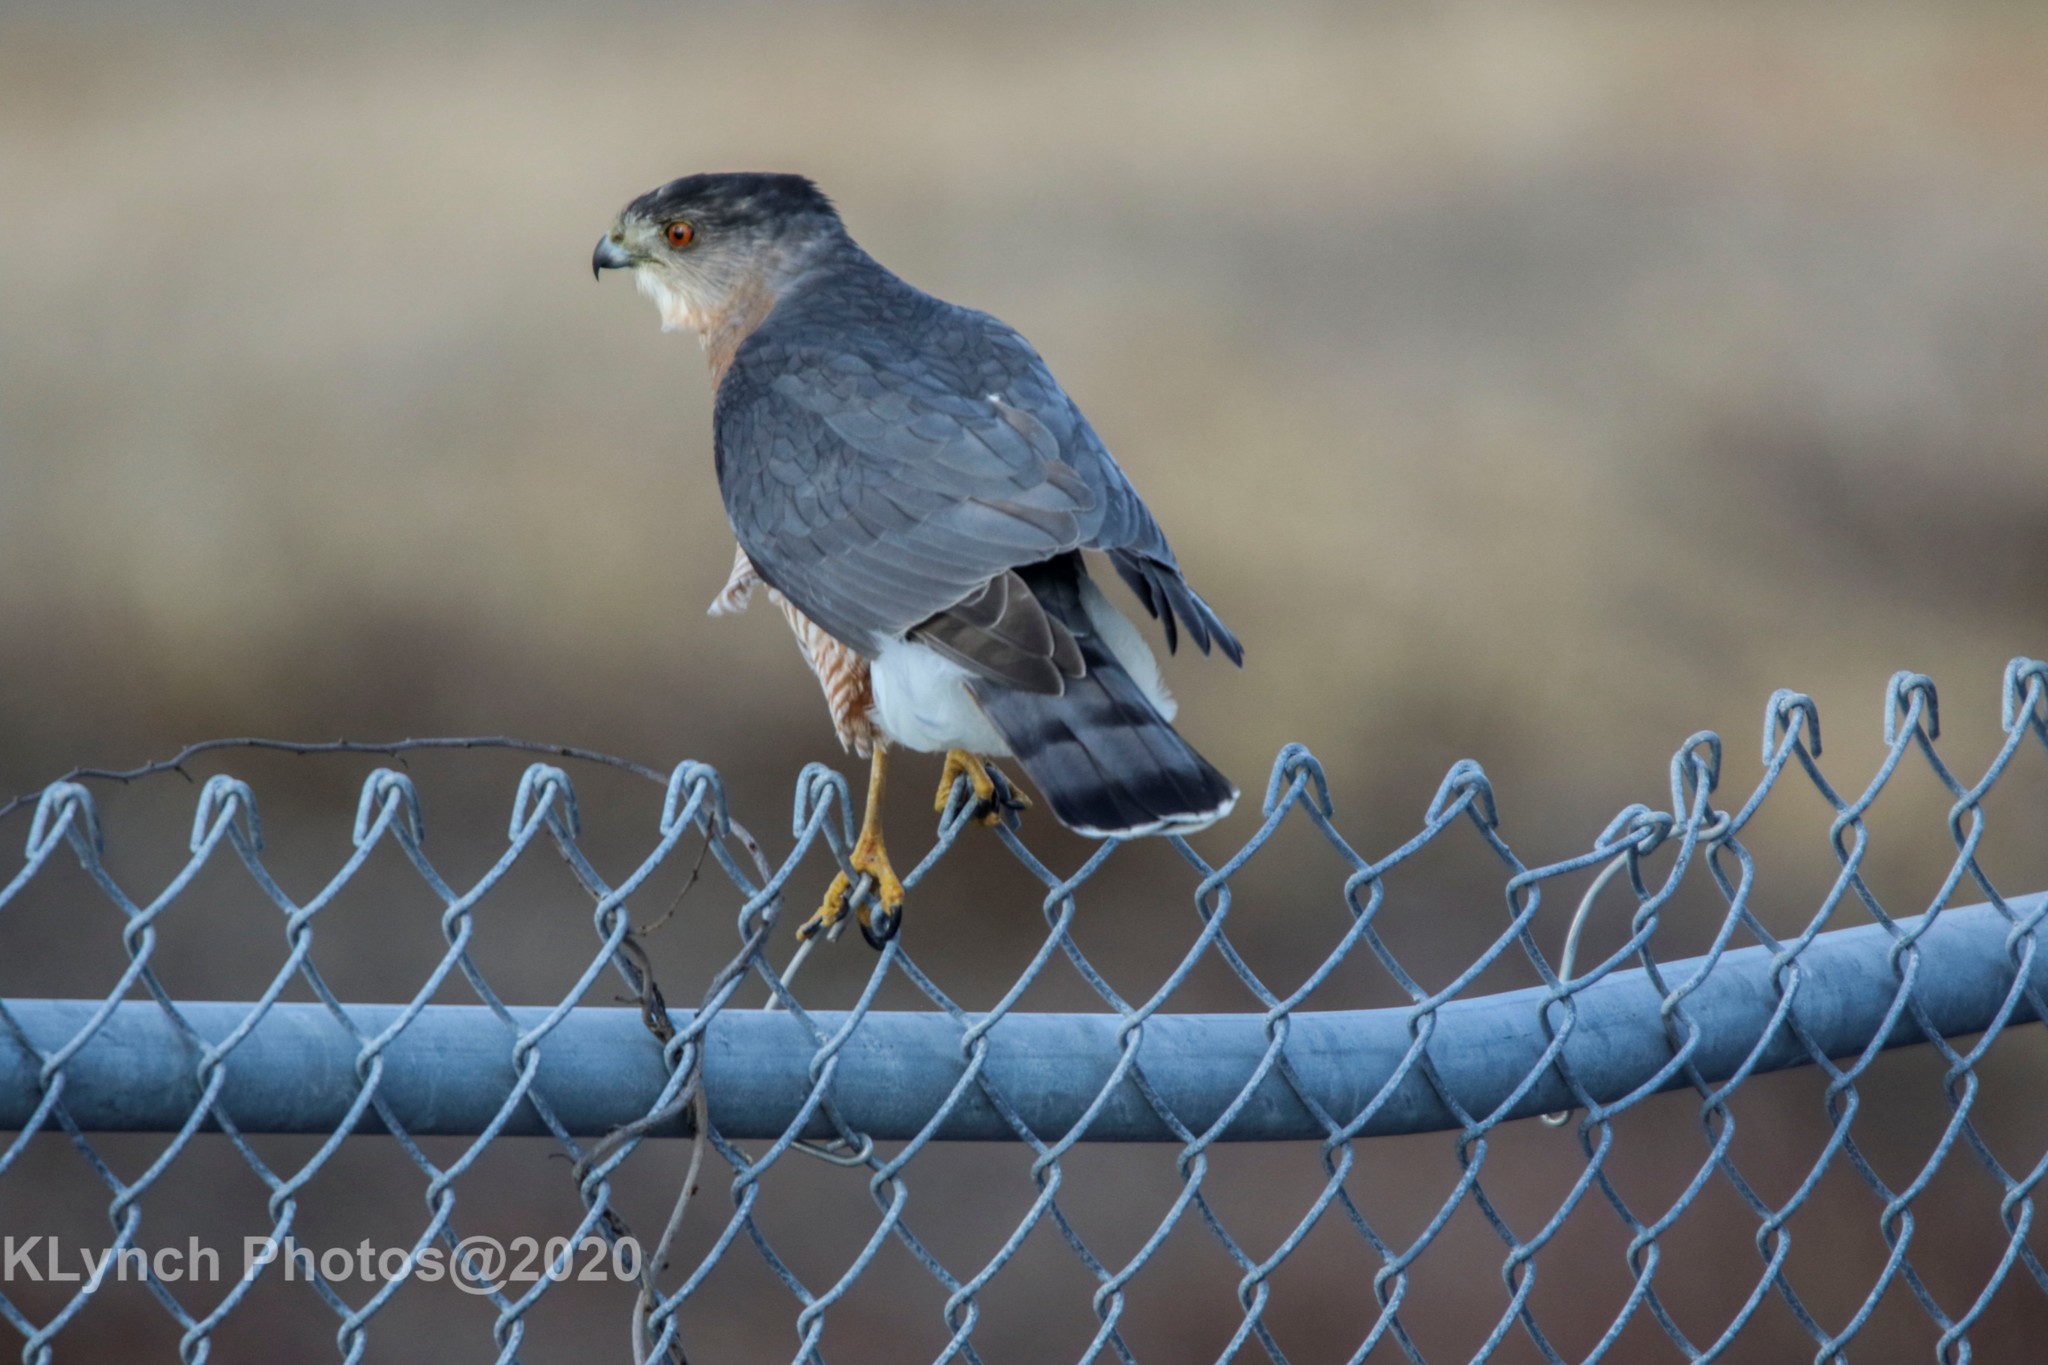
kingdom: Animalia
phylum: Chordata
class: Aves
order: Accipitriformes
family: Accipitridae
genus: Accipiter
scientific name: Accipiter cooperii
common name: Cooper's hawk
